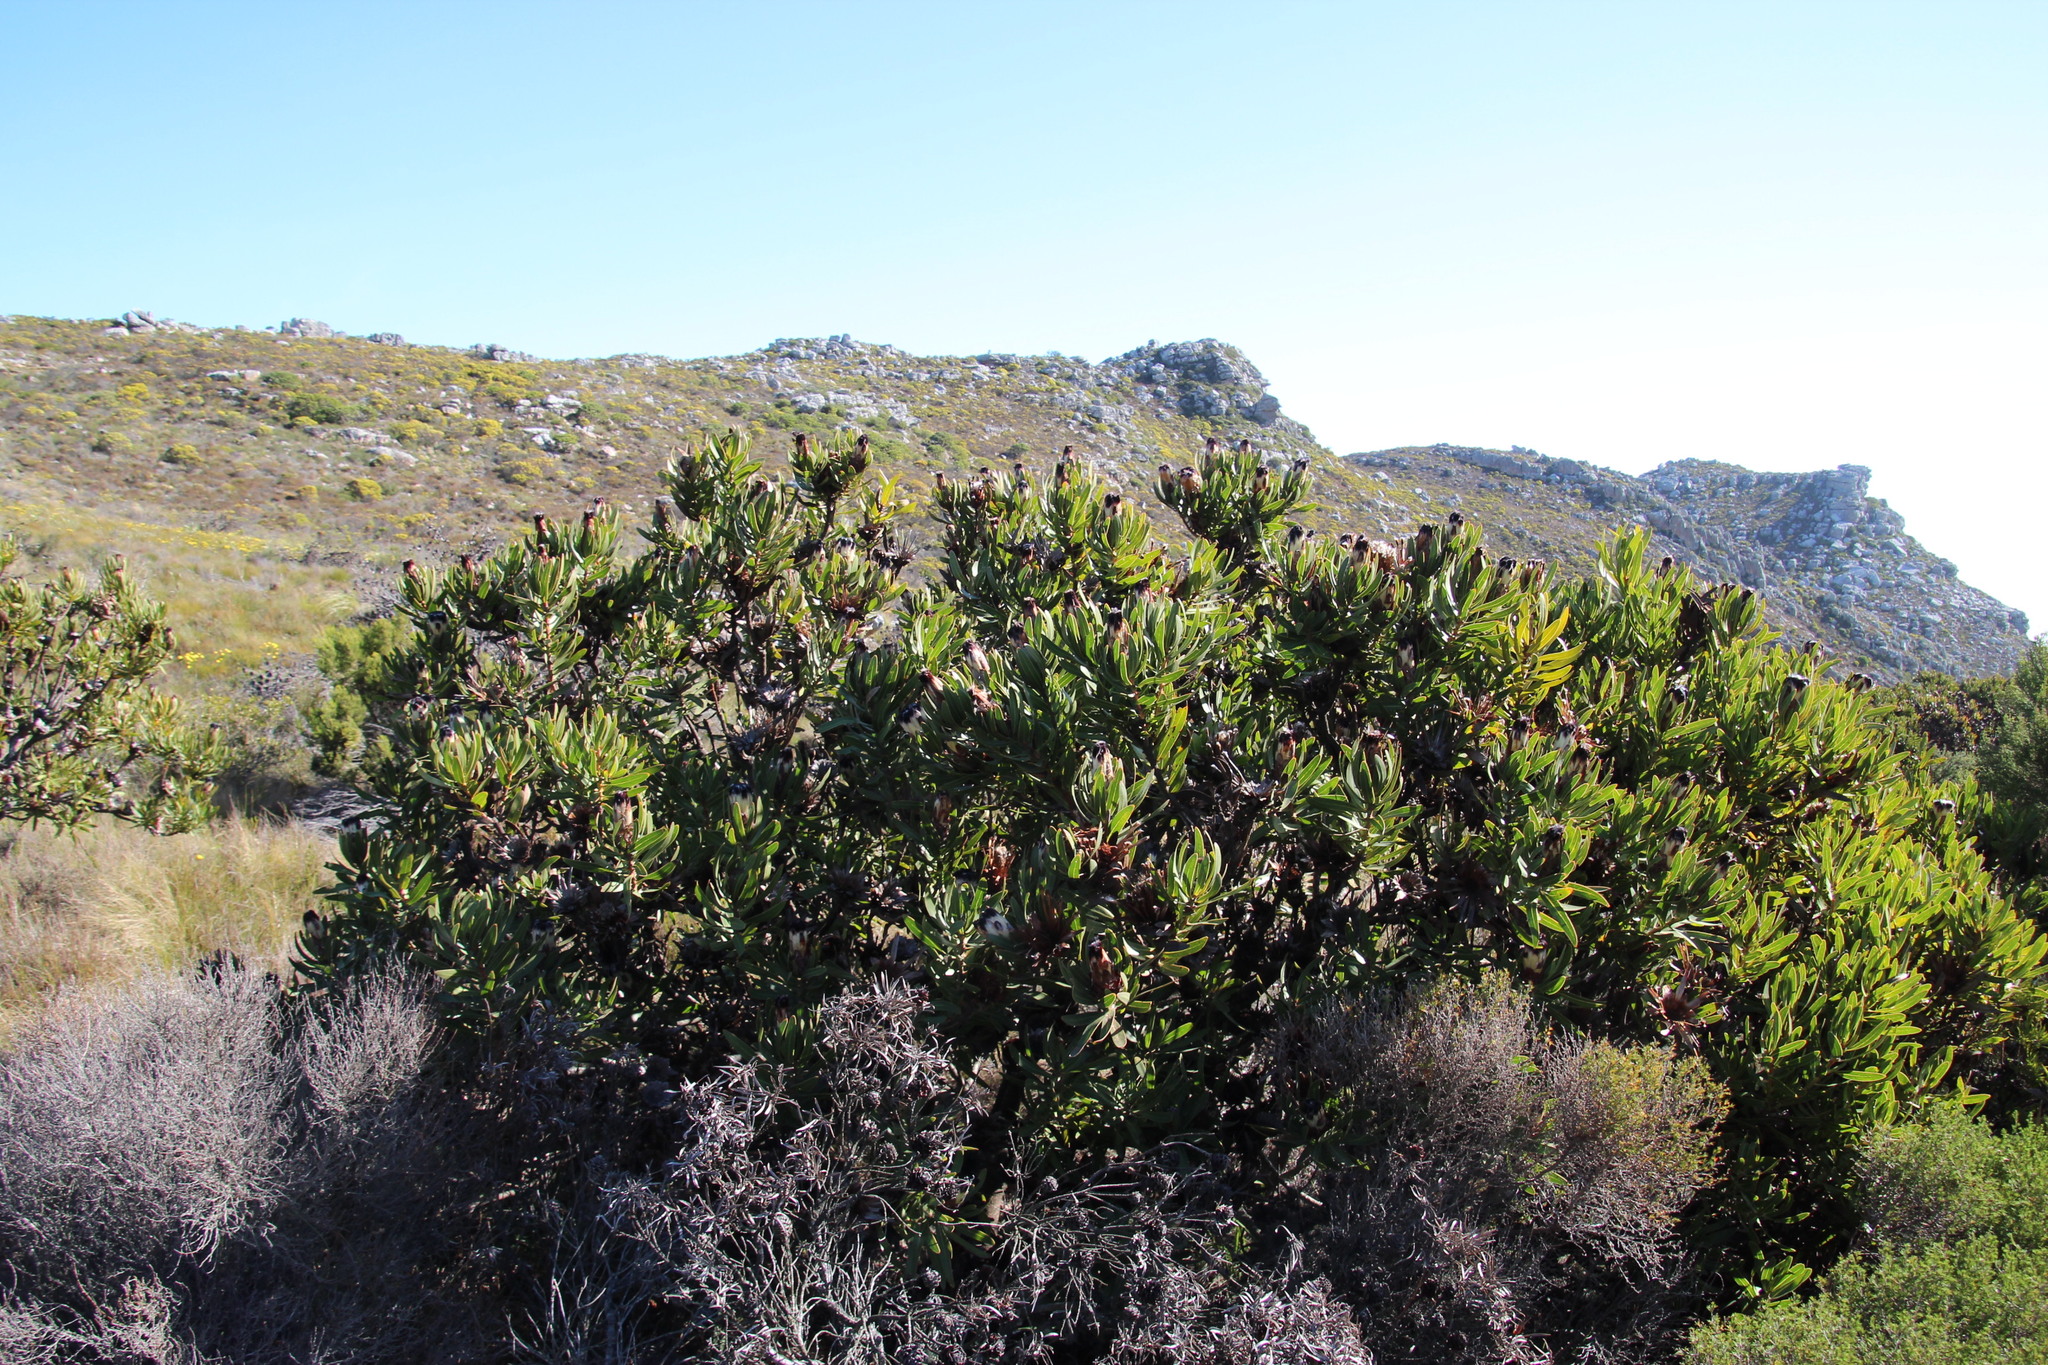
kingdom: Plantae
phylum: Tracheophyta
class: Magnoliopsida
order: Proteales
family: Proteaceae
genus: Protea
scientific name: Protea lepidocarpodendron
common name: Black-bearded protea
